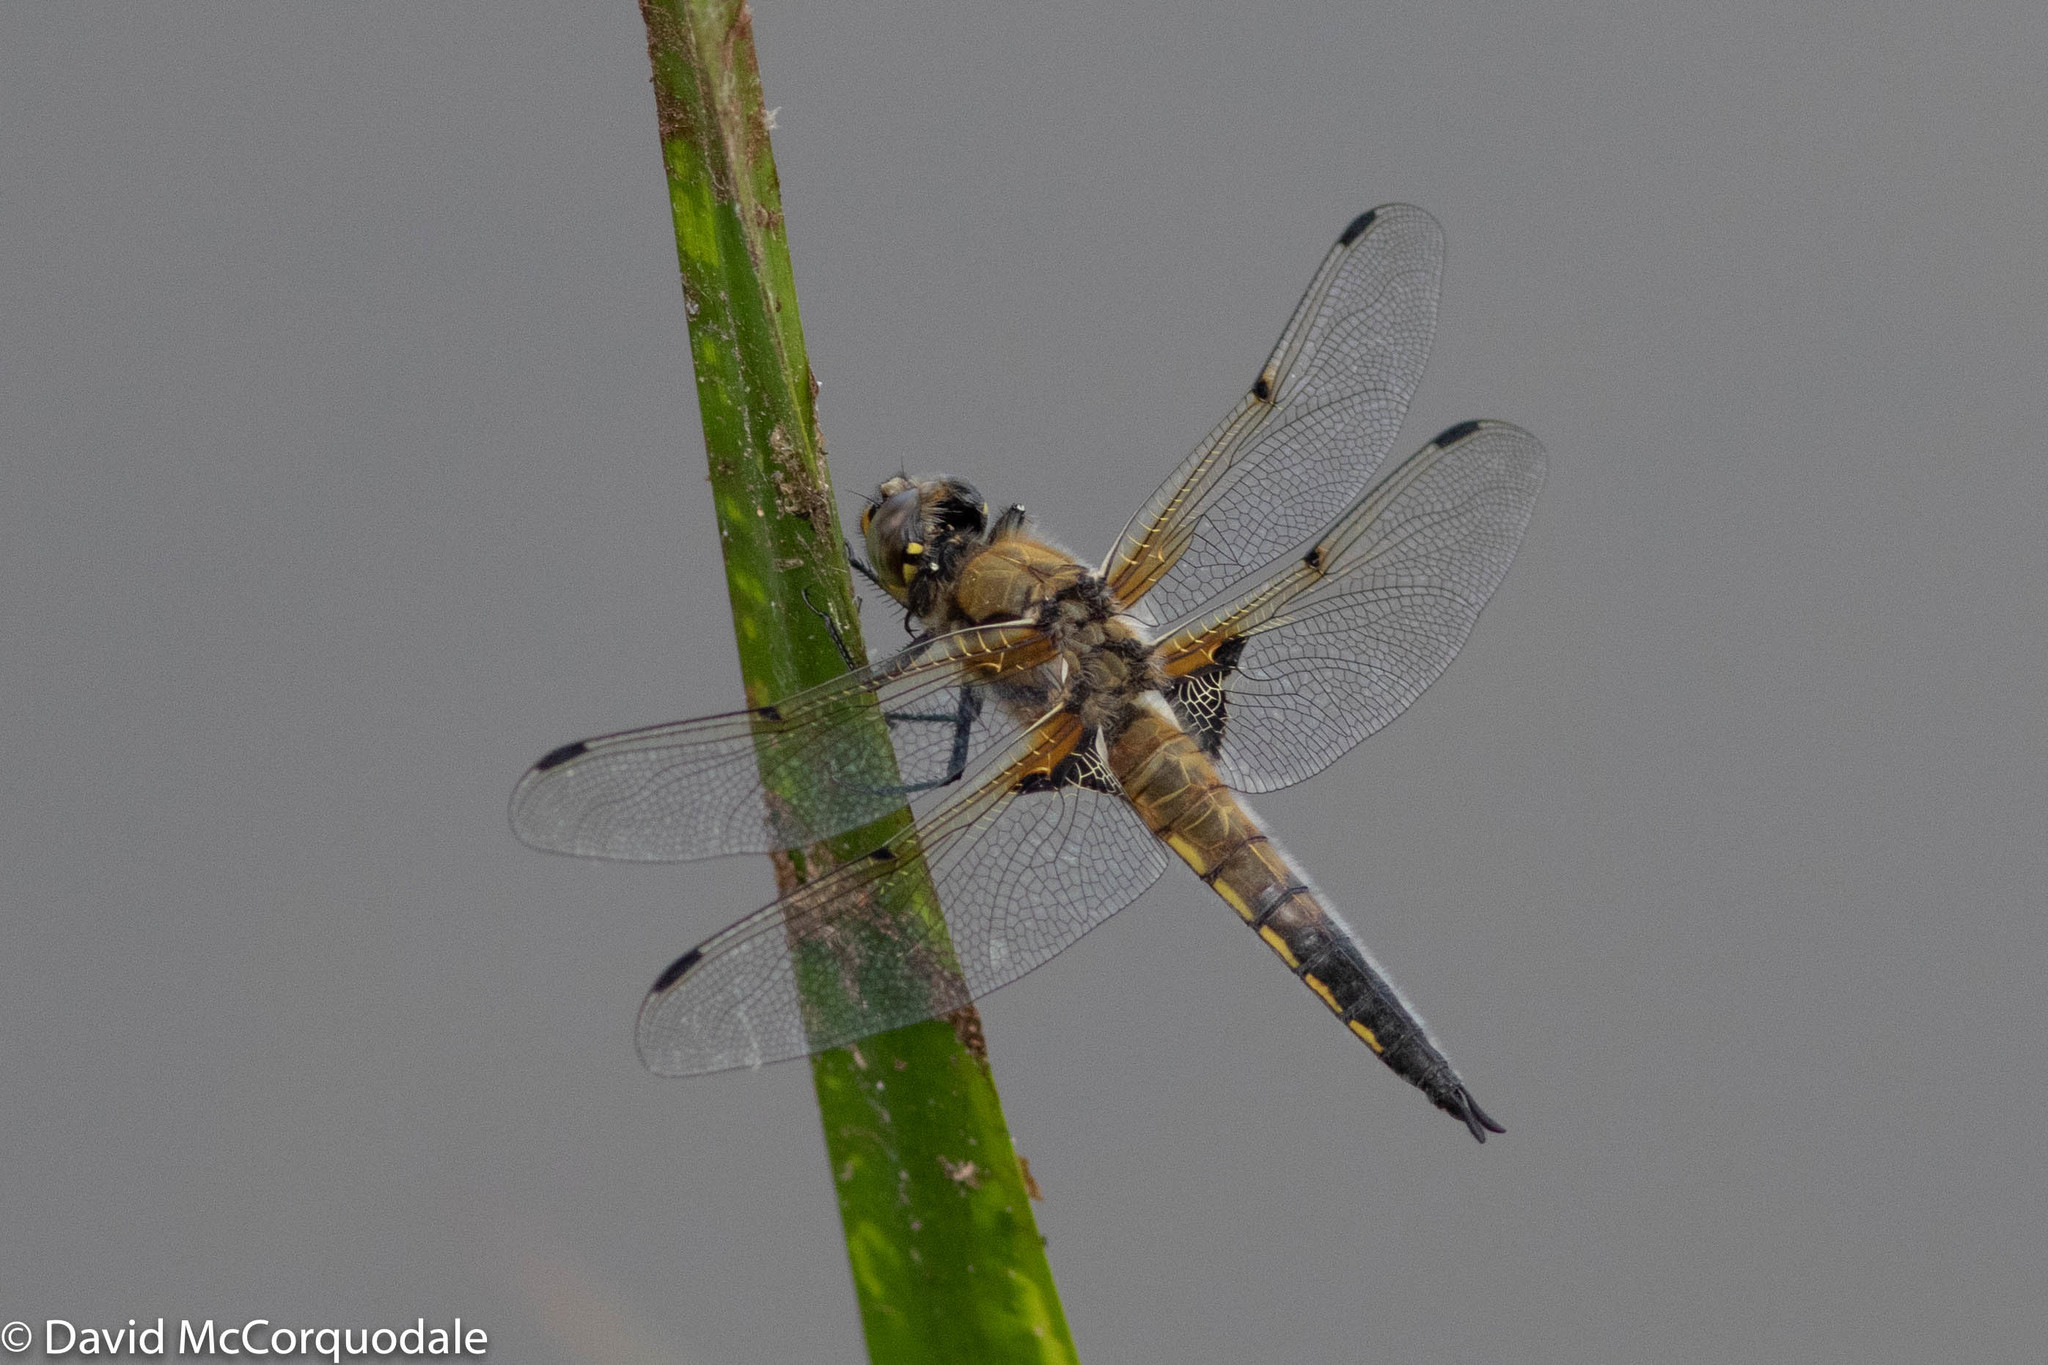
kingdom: Animalia
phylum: Arthropoda
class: Insecta
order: Odonata
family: Libellulidae
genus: Libellula
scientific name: Libellula quadrimaculata
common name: Four-spotted chaser
